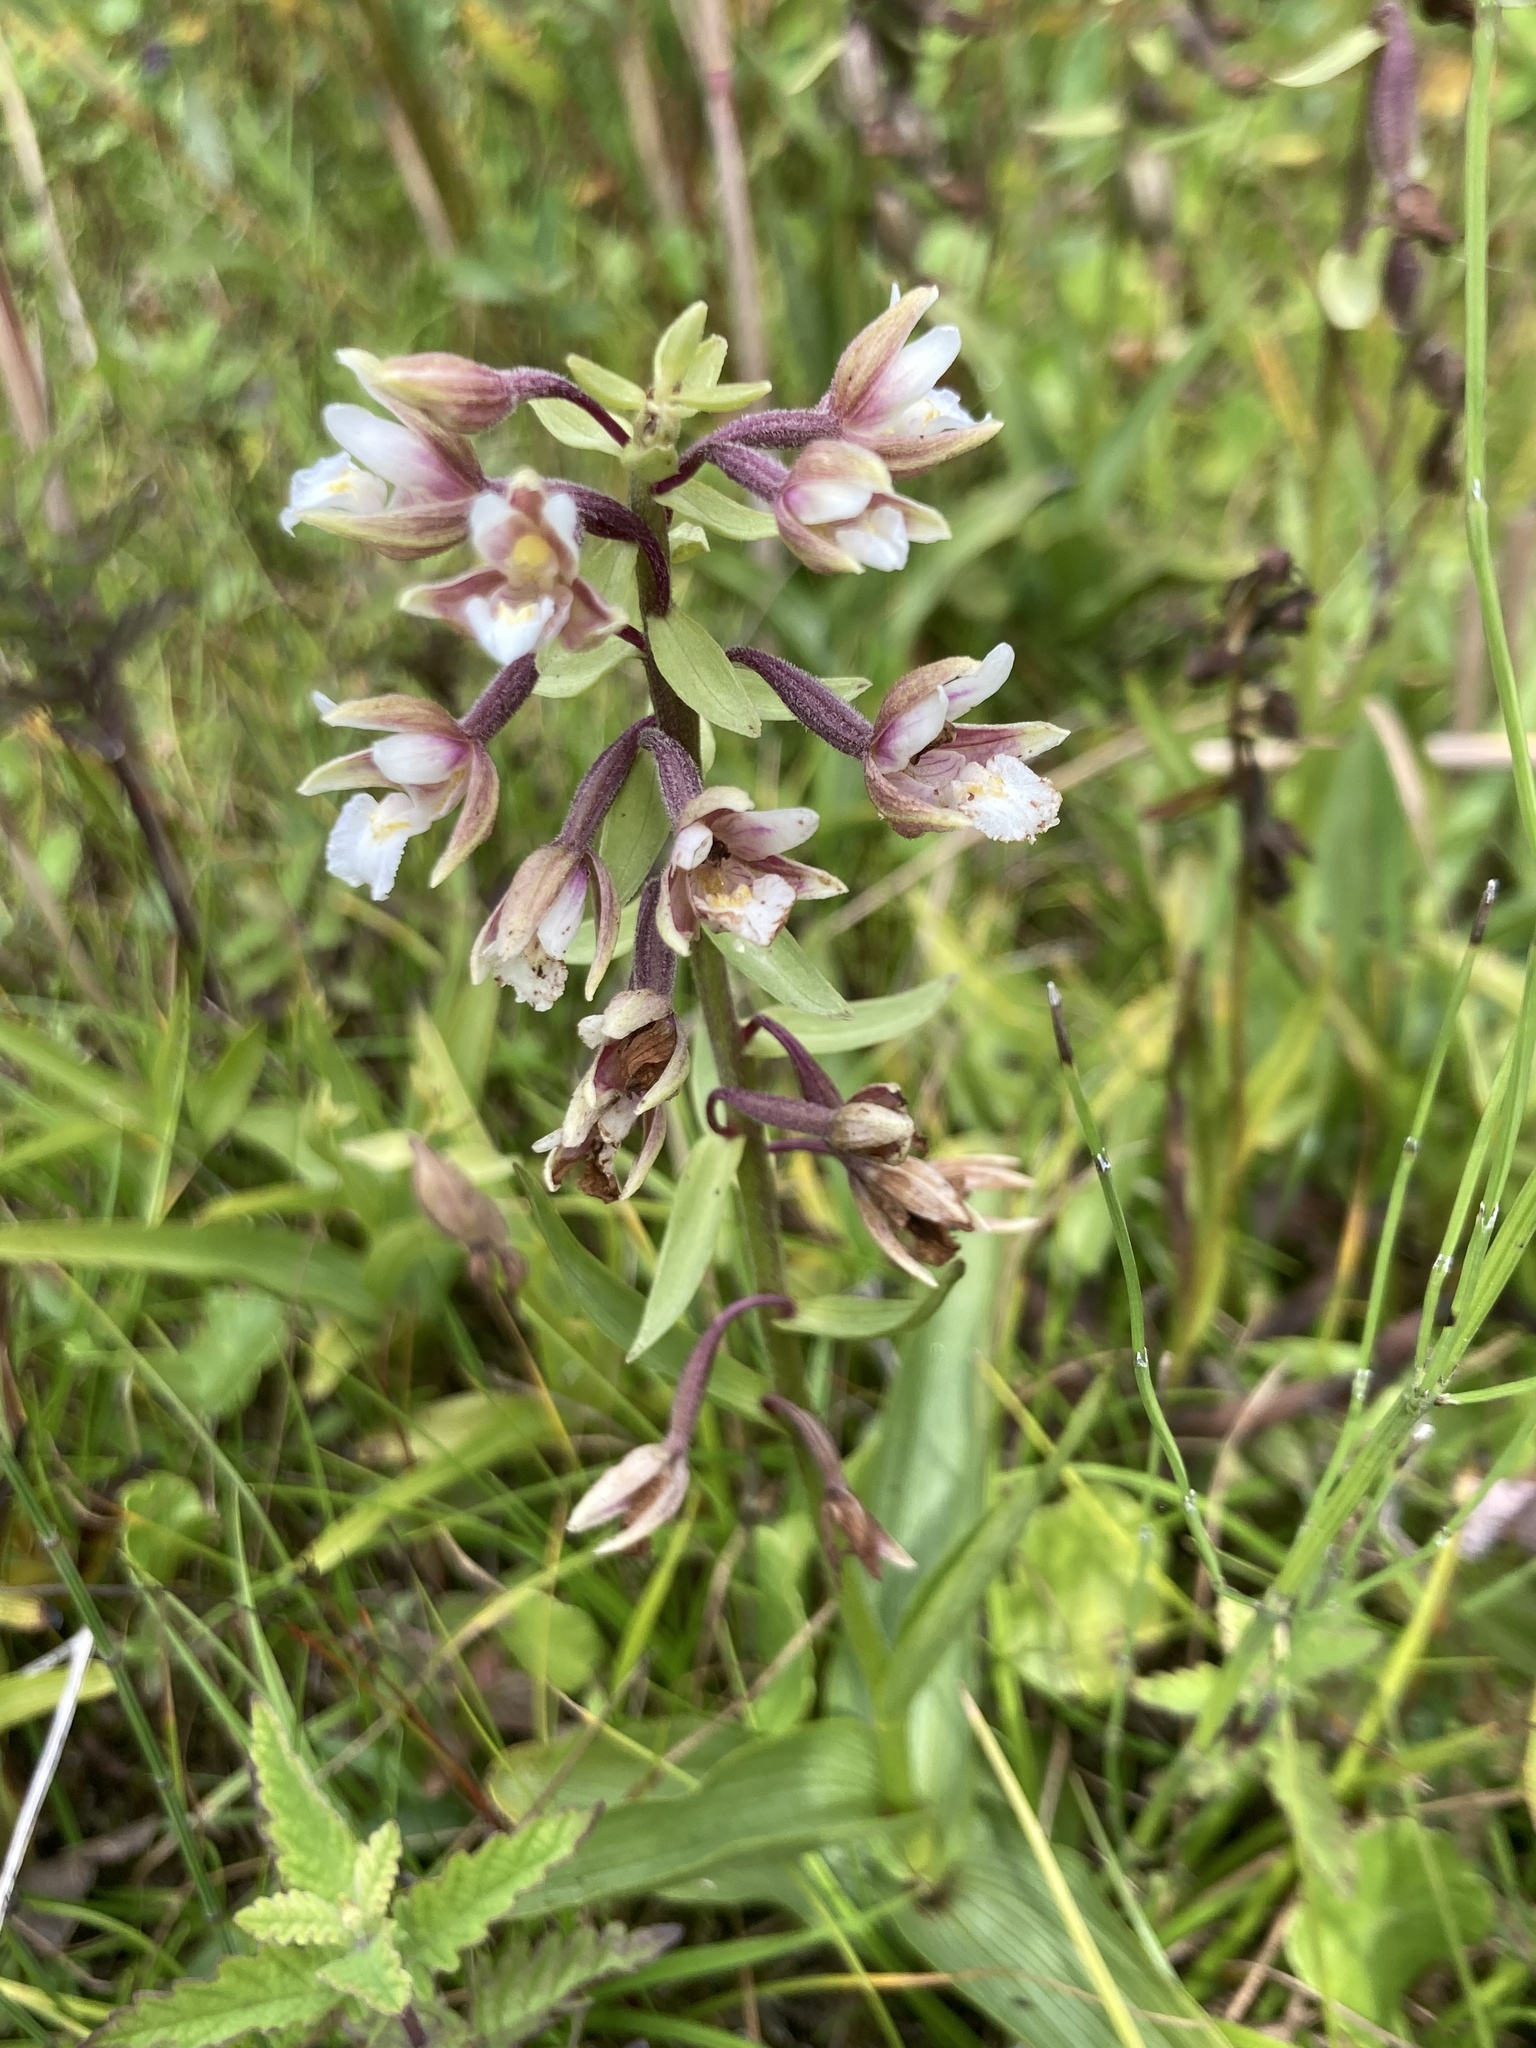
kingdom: Plantae
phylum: Tracheophyta
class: Liliopsida
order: Asparagales
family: Orchidaceae
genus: Epipactis
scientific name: Epipactis palustris
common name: Marsh helleborine
